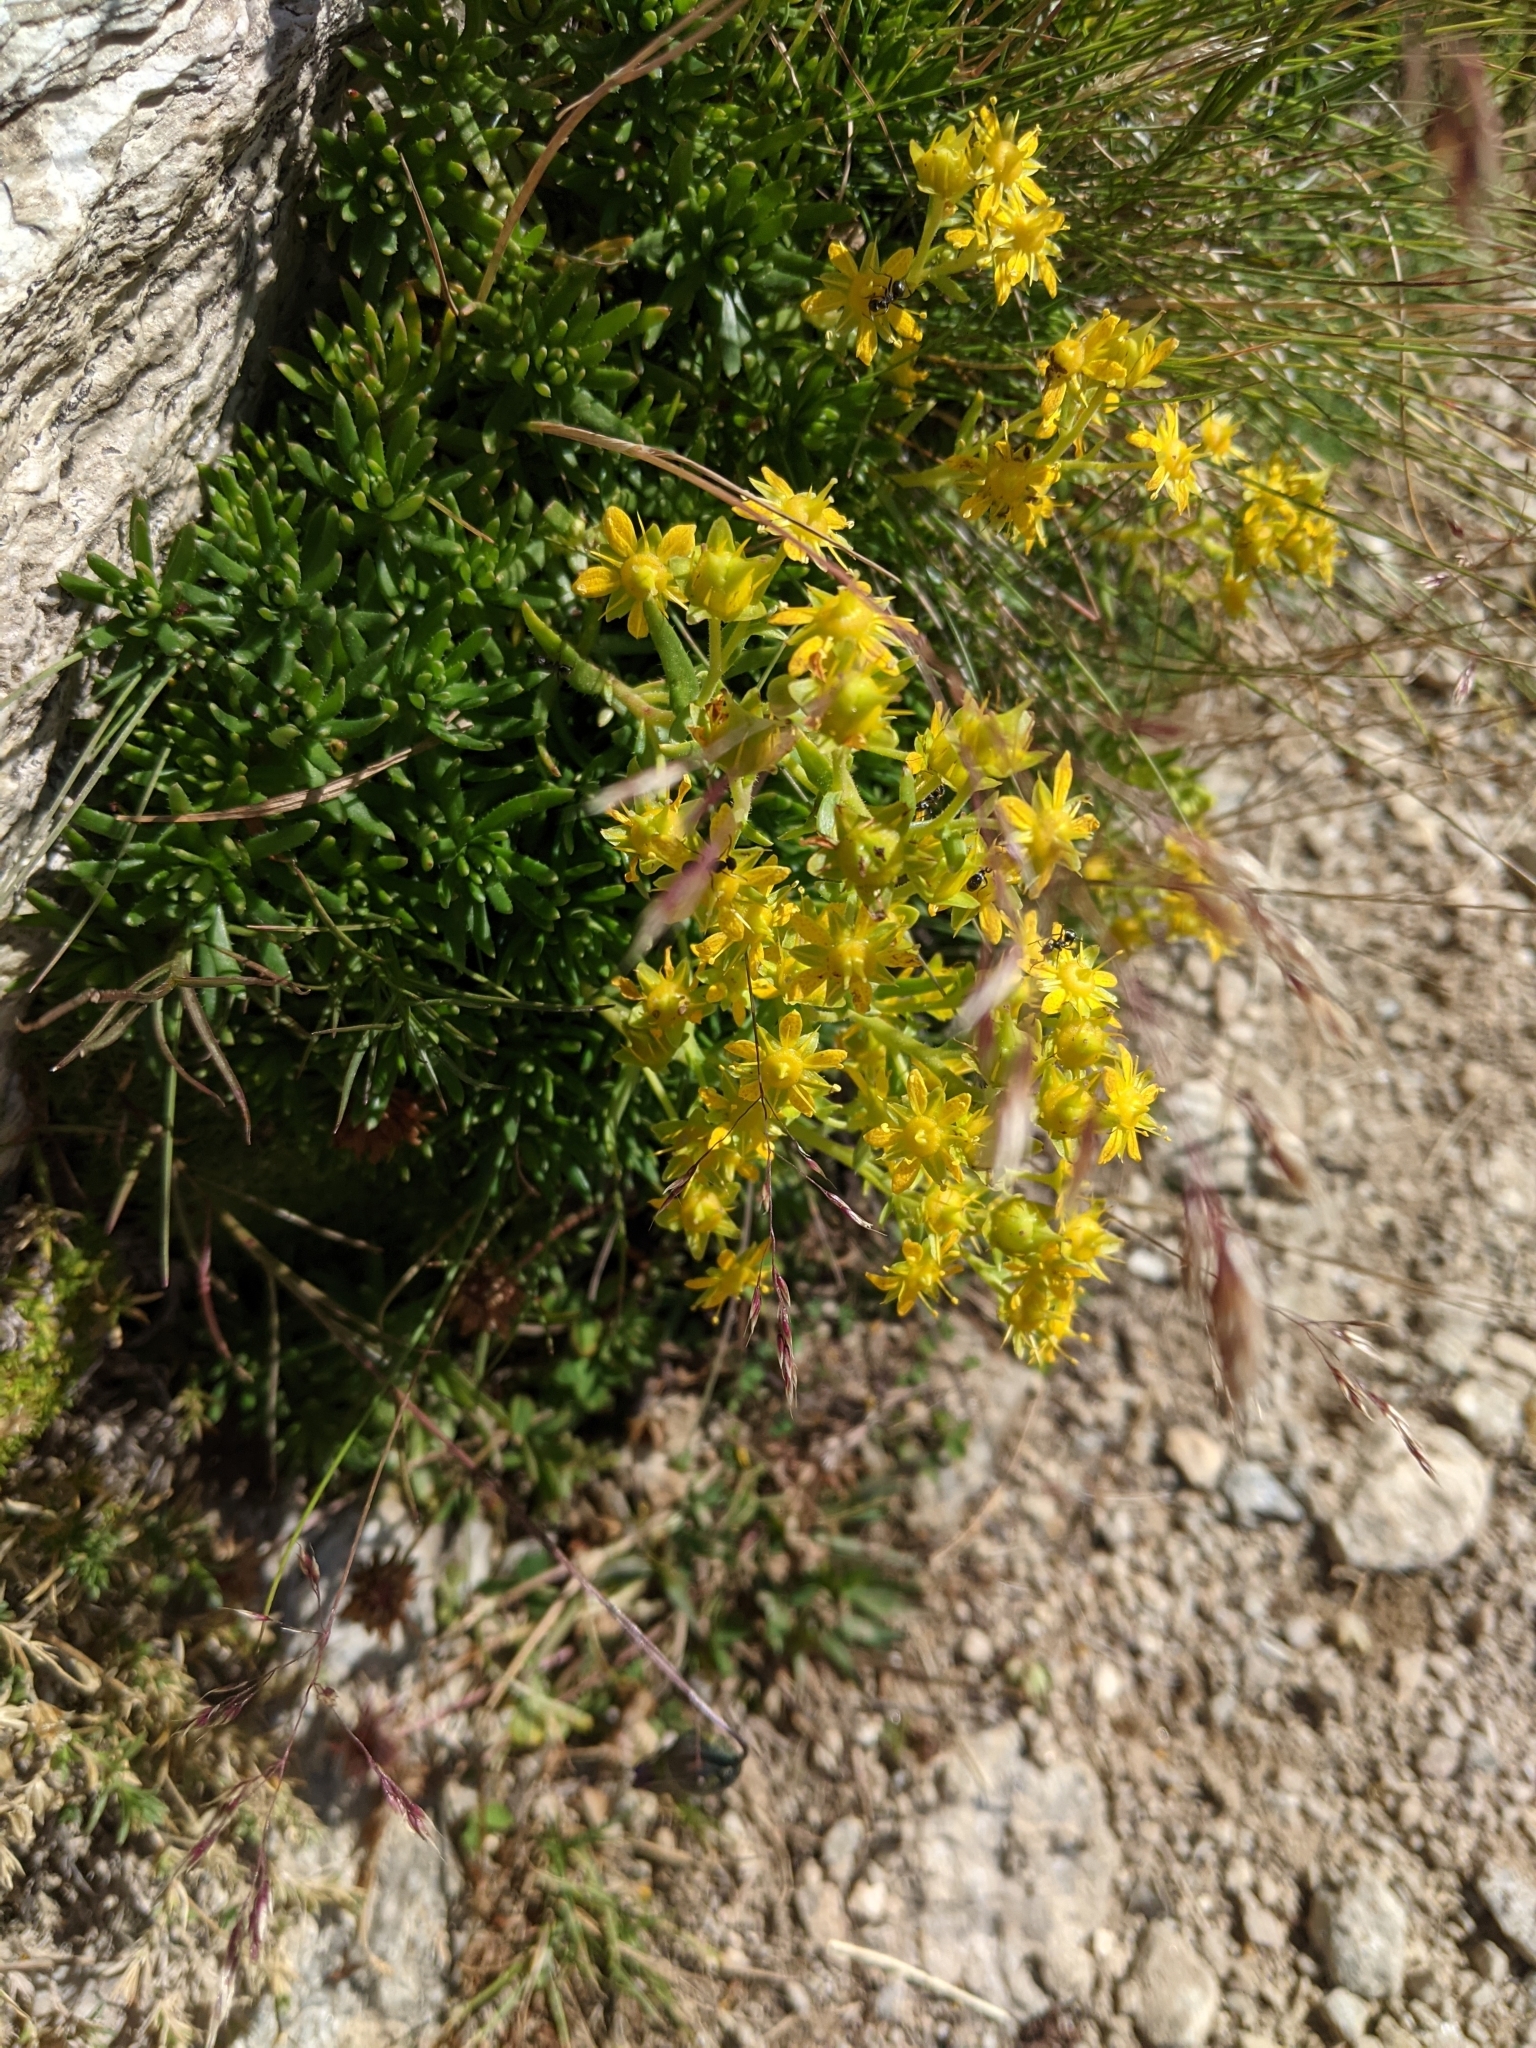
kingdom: Plantae
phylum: Tracheophyta
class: Magnoliopsida
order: Saxifragales
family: Saxifragaceae
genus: Saxifraga
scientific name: Saxifraga aizoides
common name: Yellow mountain saxifrage
